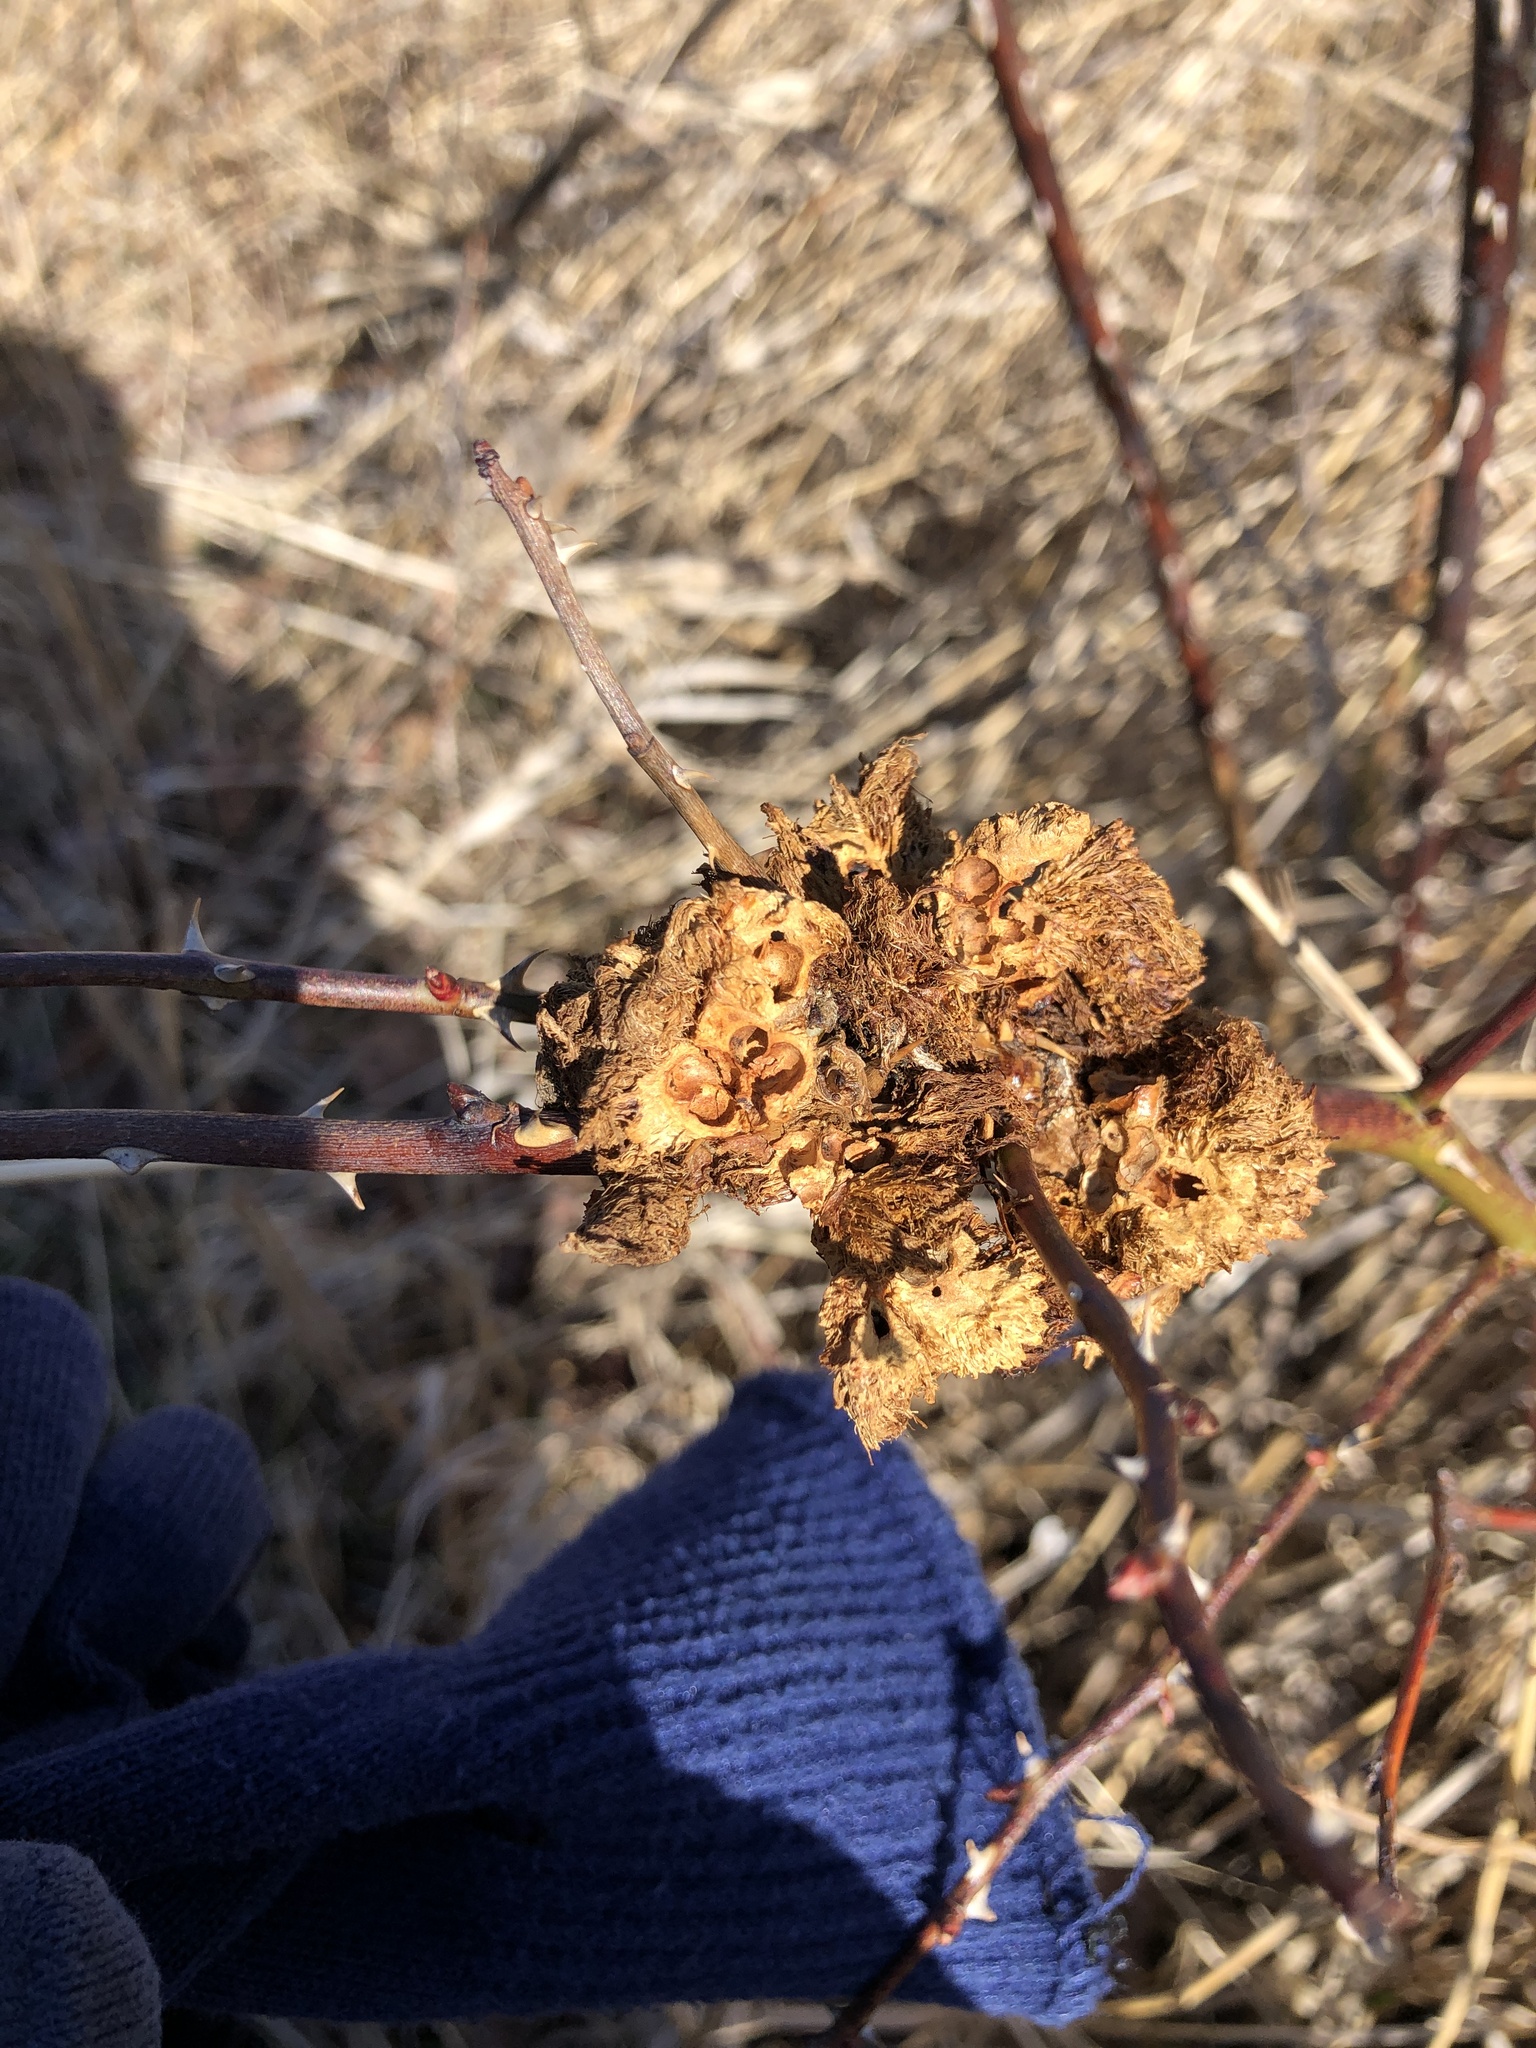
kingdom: Animalia
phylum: Arthropoda
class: Insecta
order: Hymenoptera
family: Cynipidae
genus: Diplolepis
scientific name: Diplolepis rosae
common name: Bedeguar gall
